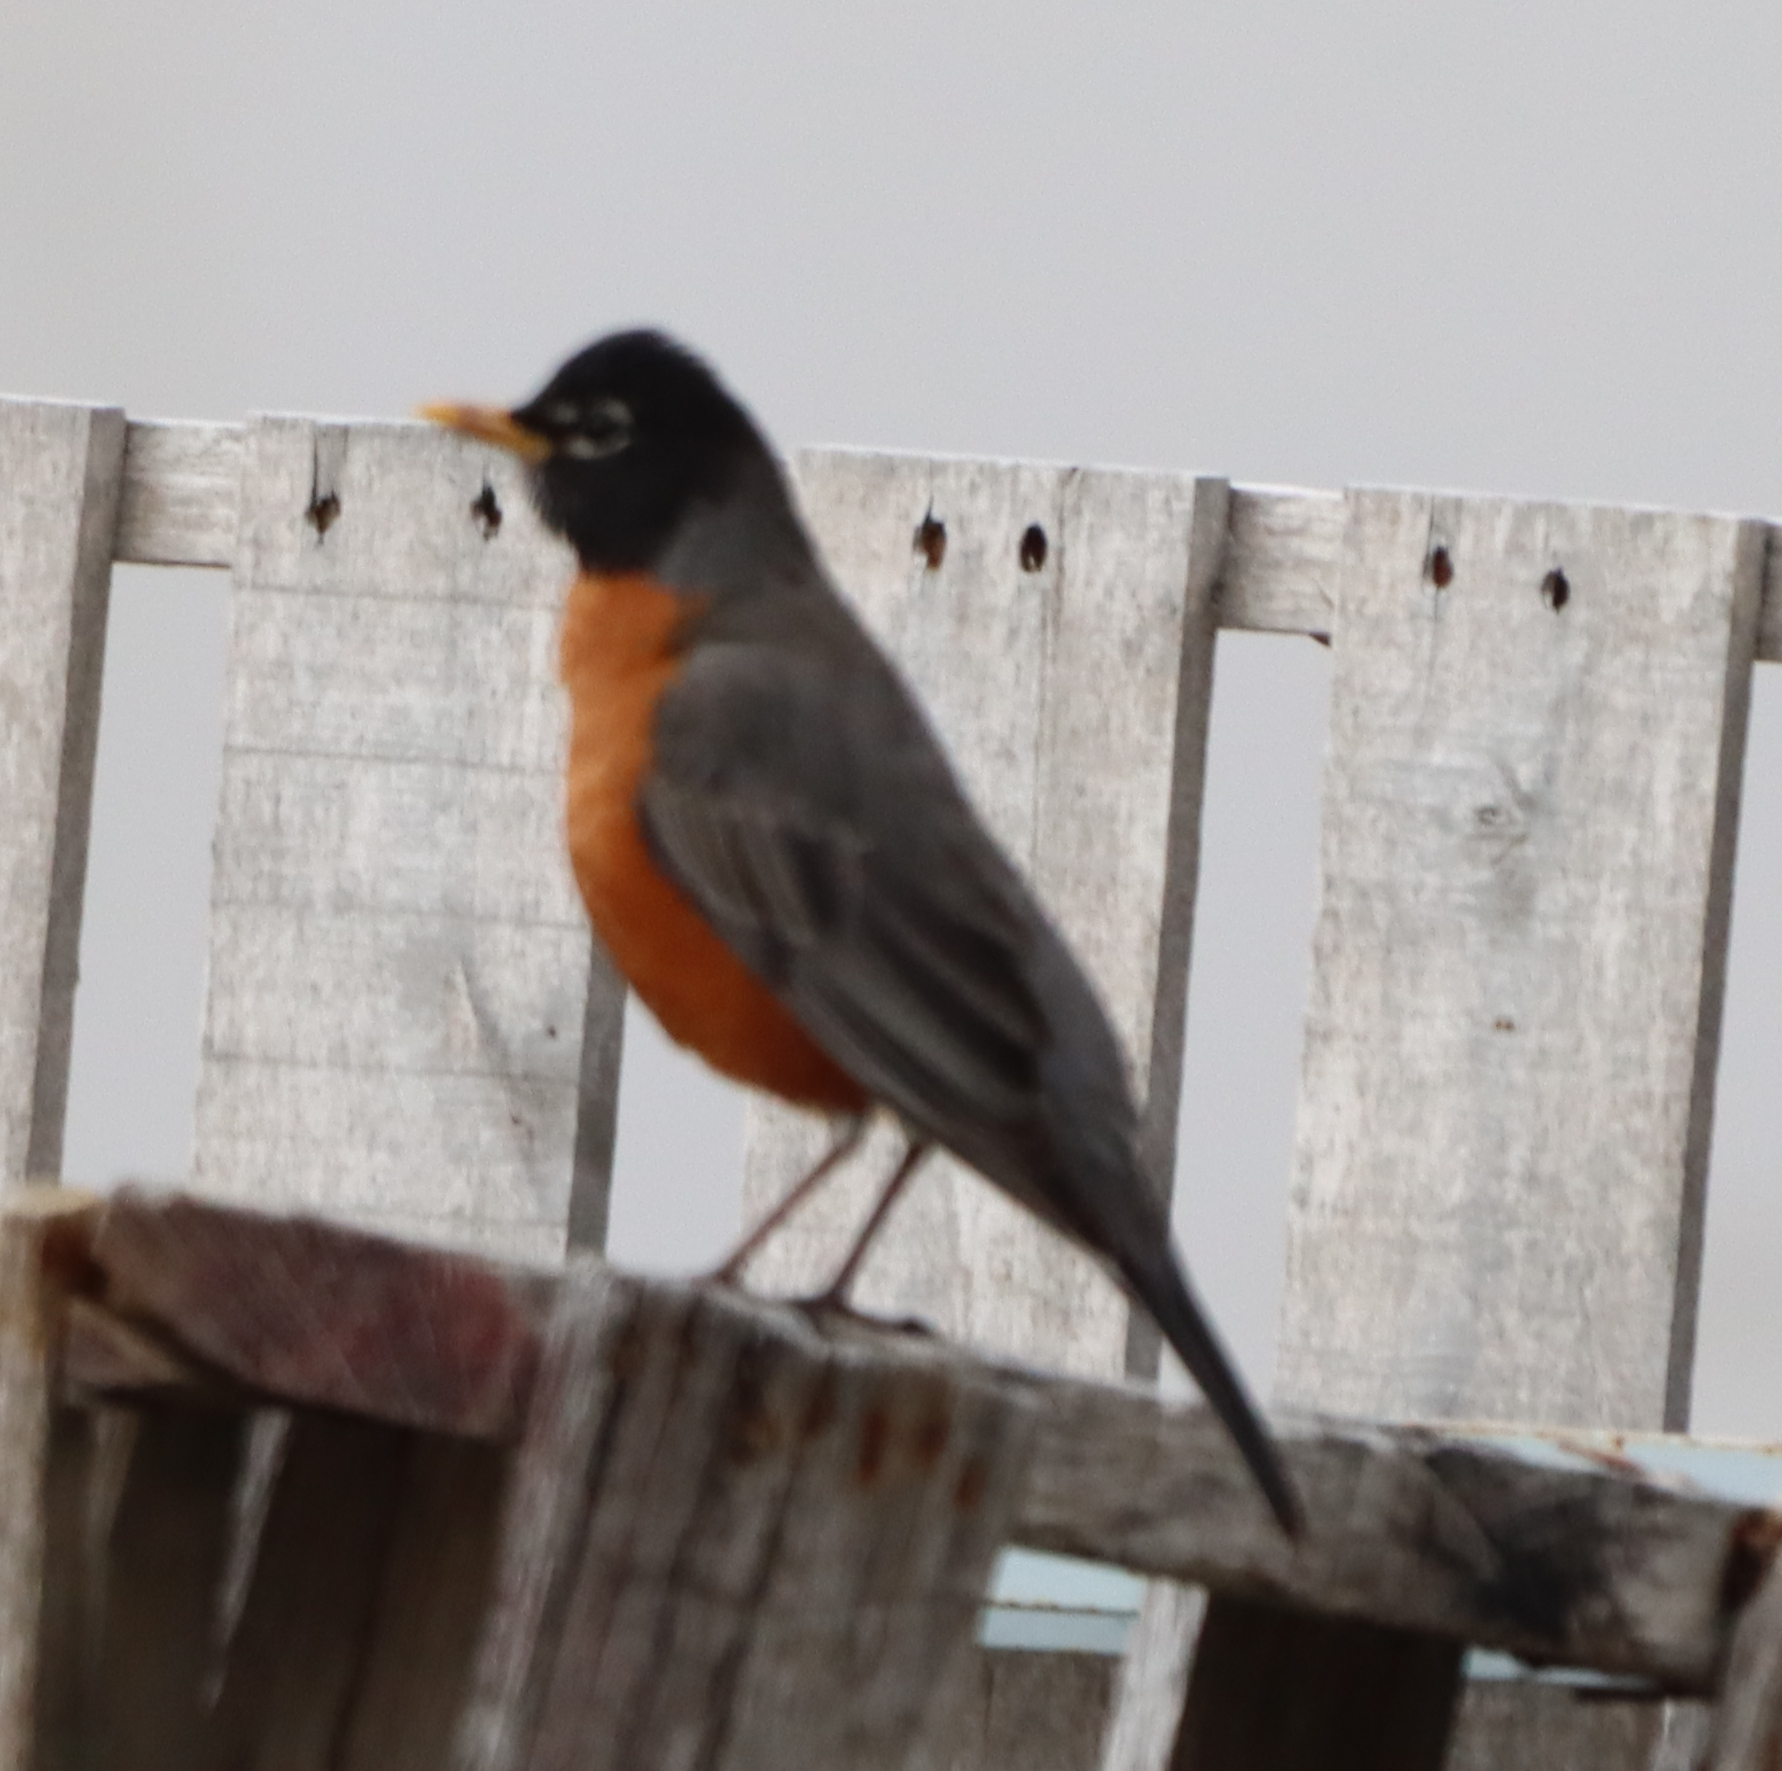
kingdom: Animalia
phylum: Chordata
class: Aves
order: Passeriformes
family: Turdidae
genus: Turdus
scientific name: Turdus migratorius
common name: American robin
